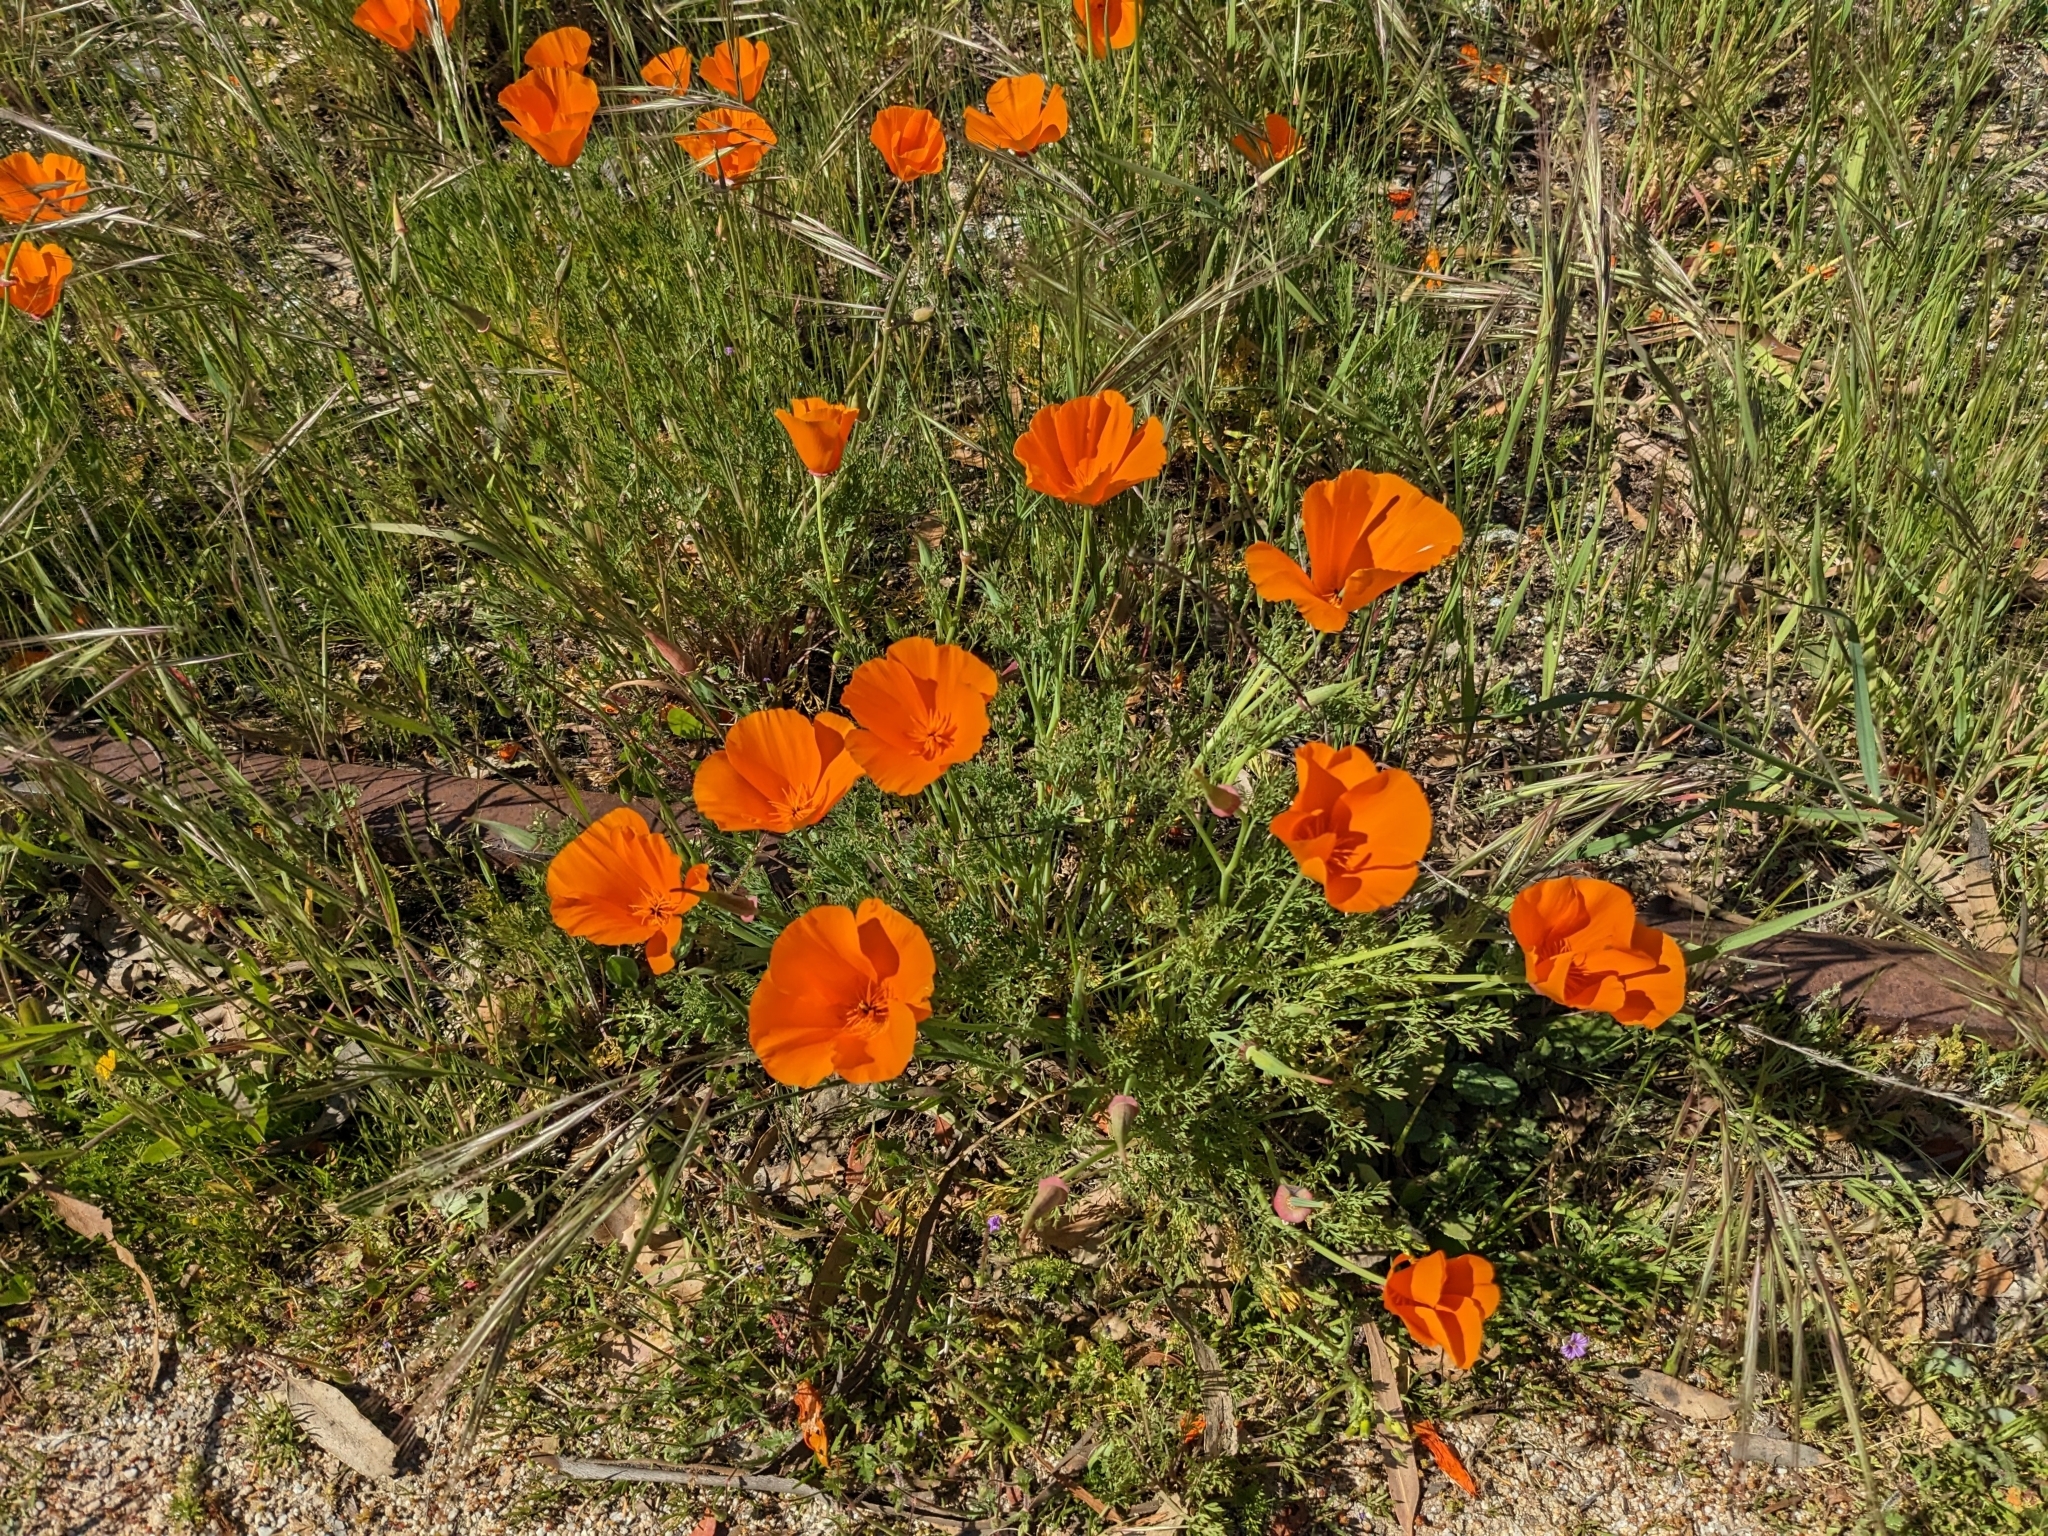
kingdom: Plantae
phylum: Tracheophyta
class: Magnoliopsida
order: Ranunculales
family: Papaveraceae
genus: Eschscholzia
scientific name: Eschscholzia californica
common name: California poppy
